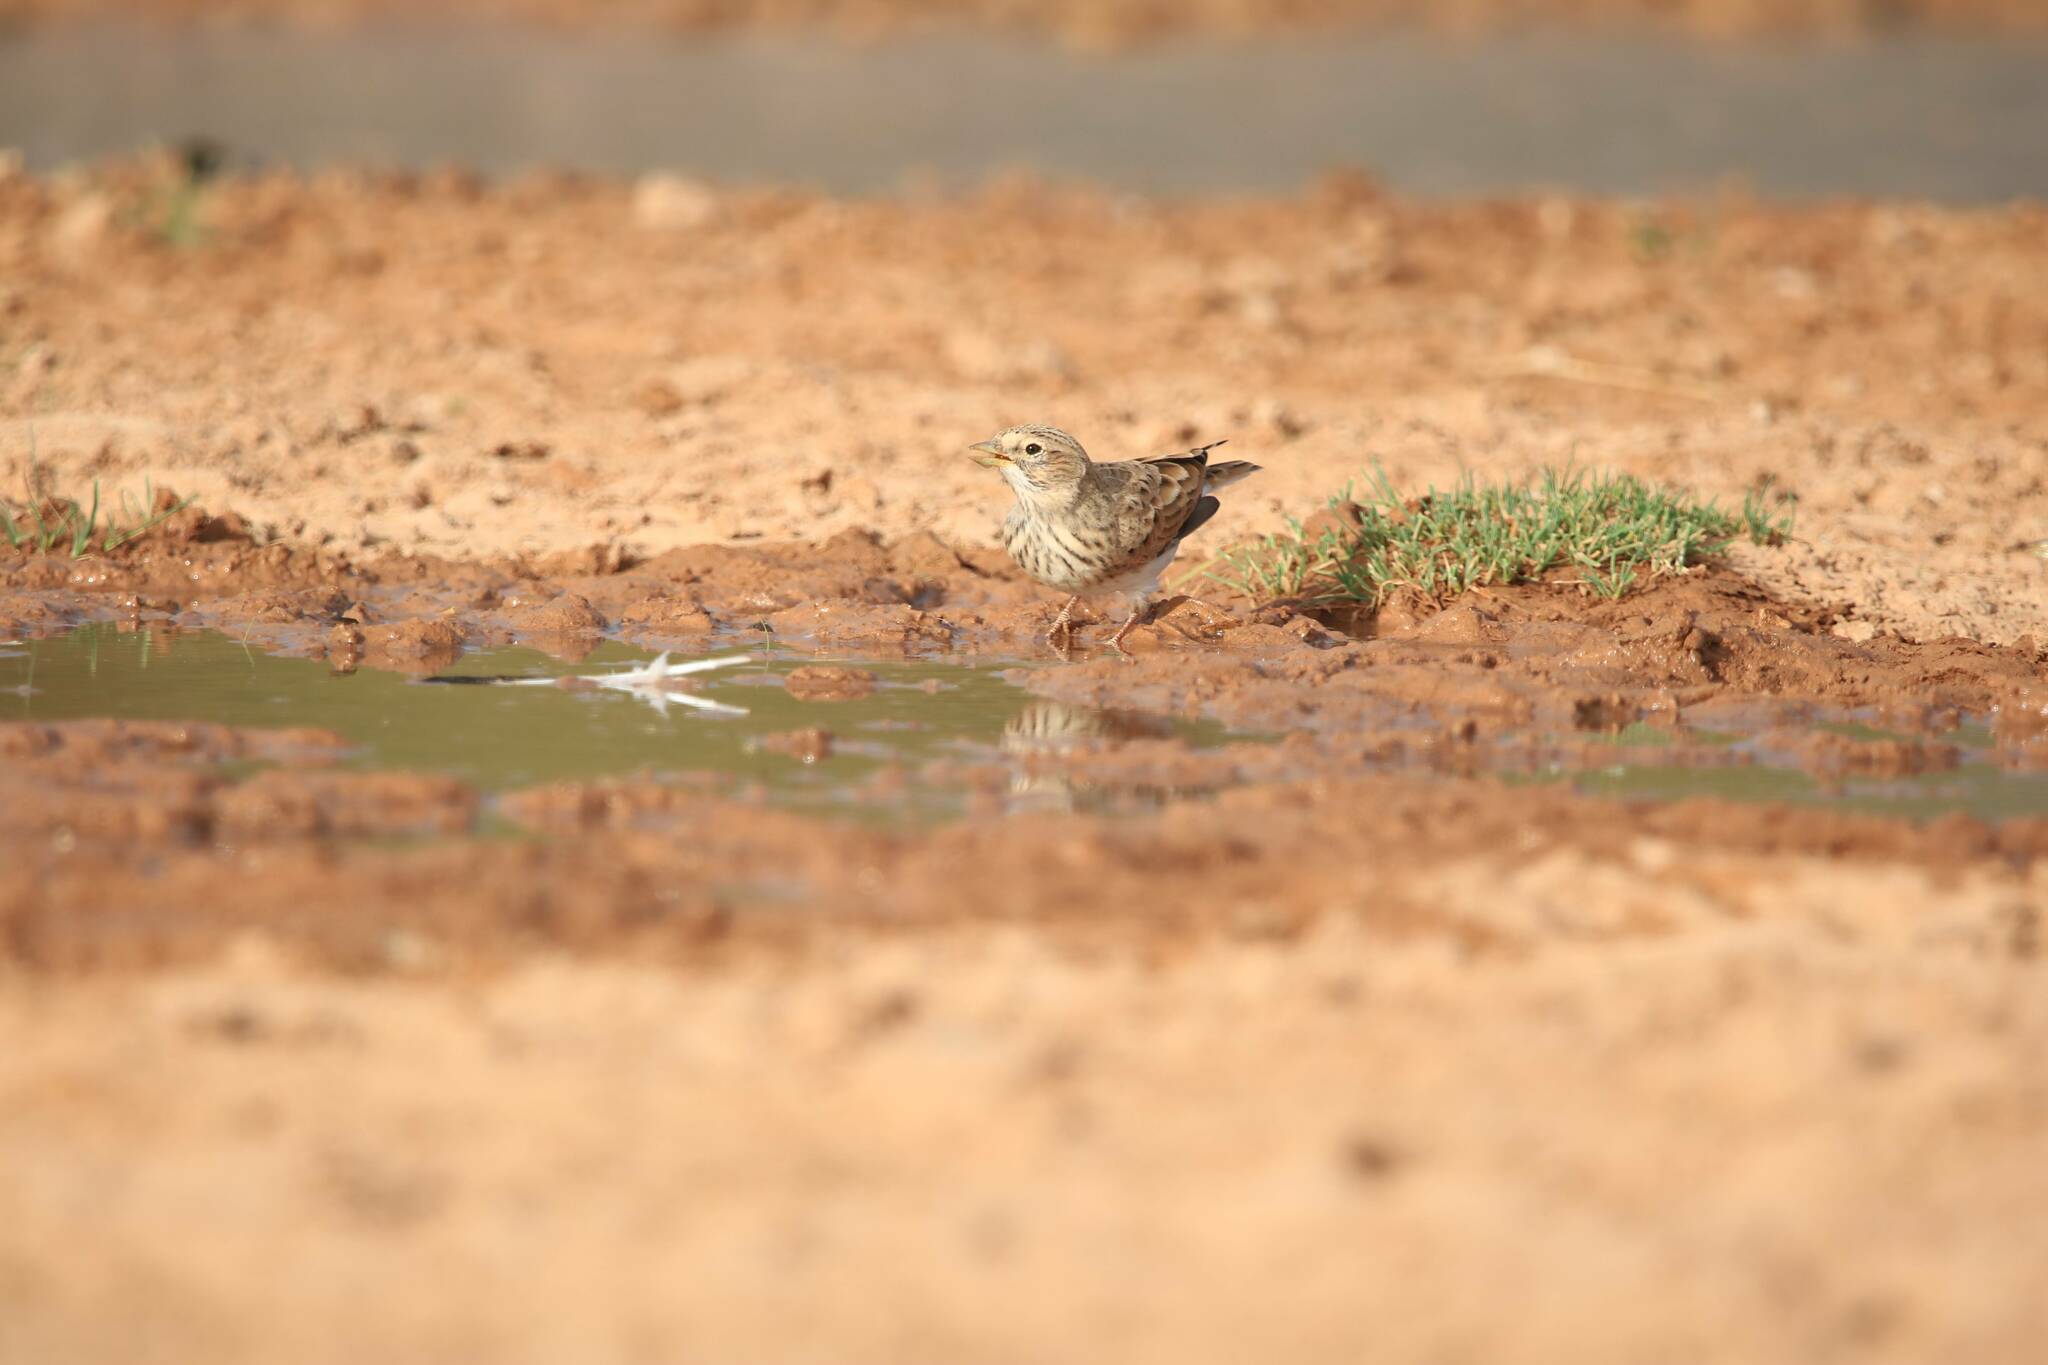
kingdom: Animalia
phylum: Chordata
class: Aves
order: Passeriformes
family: Alaudidae
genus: Calandrella
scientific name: Calandrella rufescens
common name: Lesser short-toed lark
